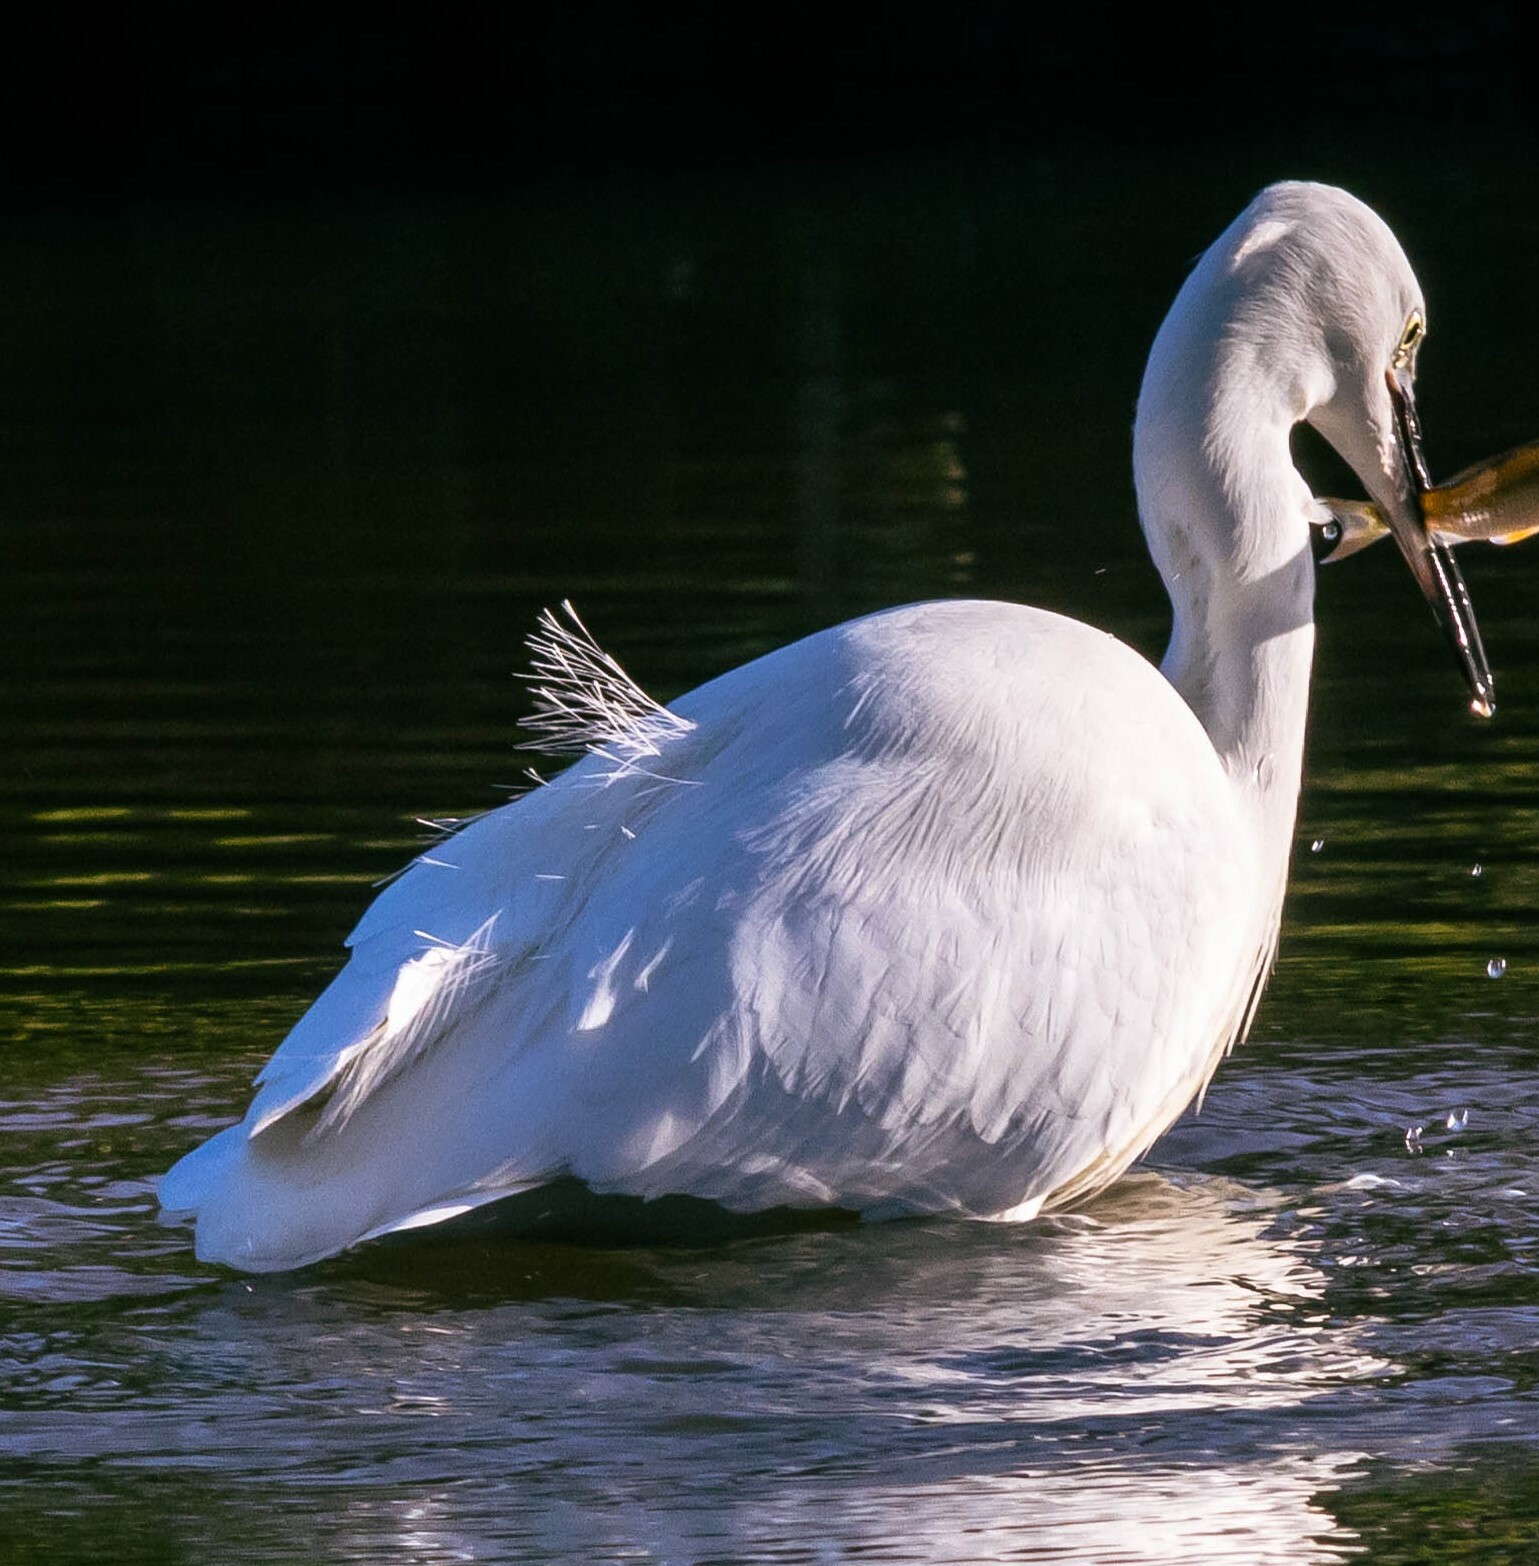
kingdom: Animalia
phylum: Chordata
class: Aves
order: Pelecaniformes
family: Ardeidae
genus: Egretta
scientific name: Egretta garzetta
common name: Little egret
